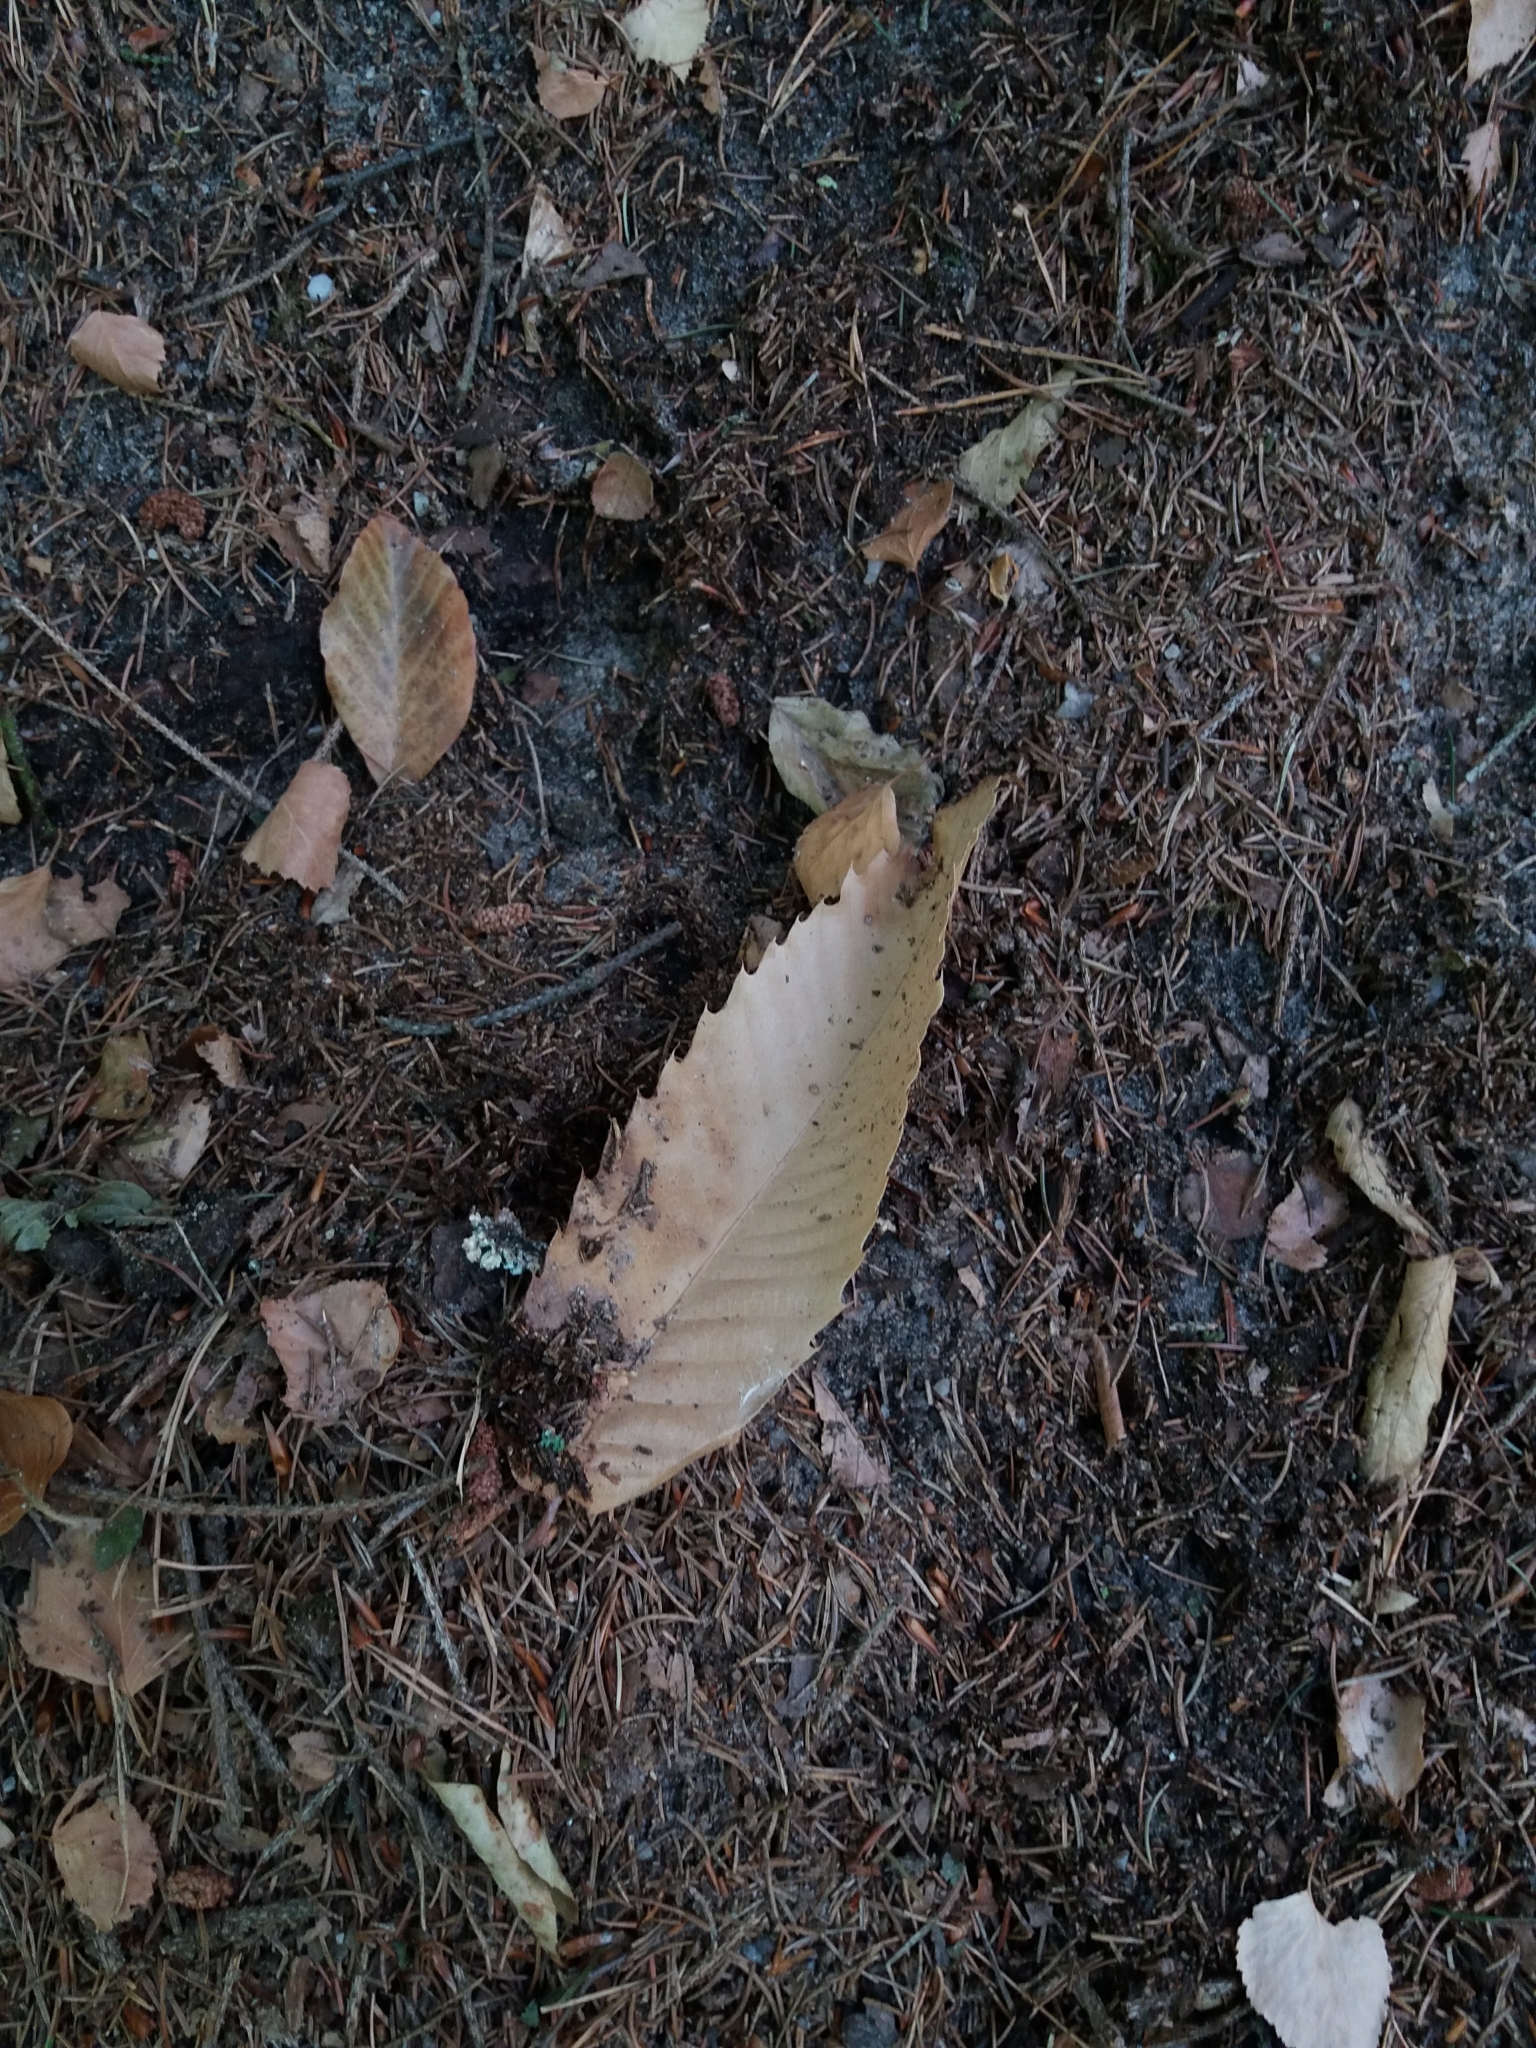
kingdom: Plantae
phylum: Tracheophyta
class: Magnoliopsida
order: Fagales
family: Fagaceae
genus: Castanea
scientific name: Castanea sativa
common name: Sweet chestnut
